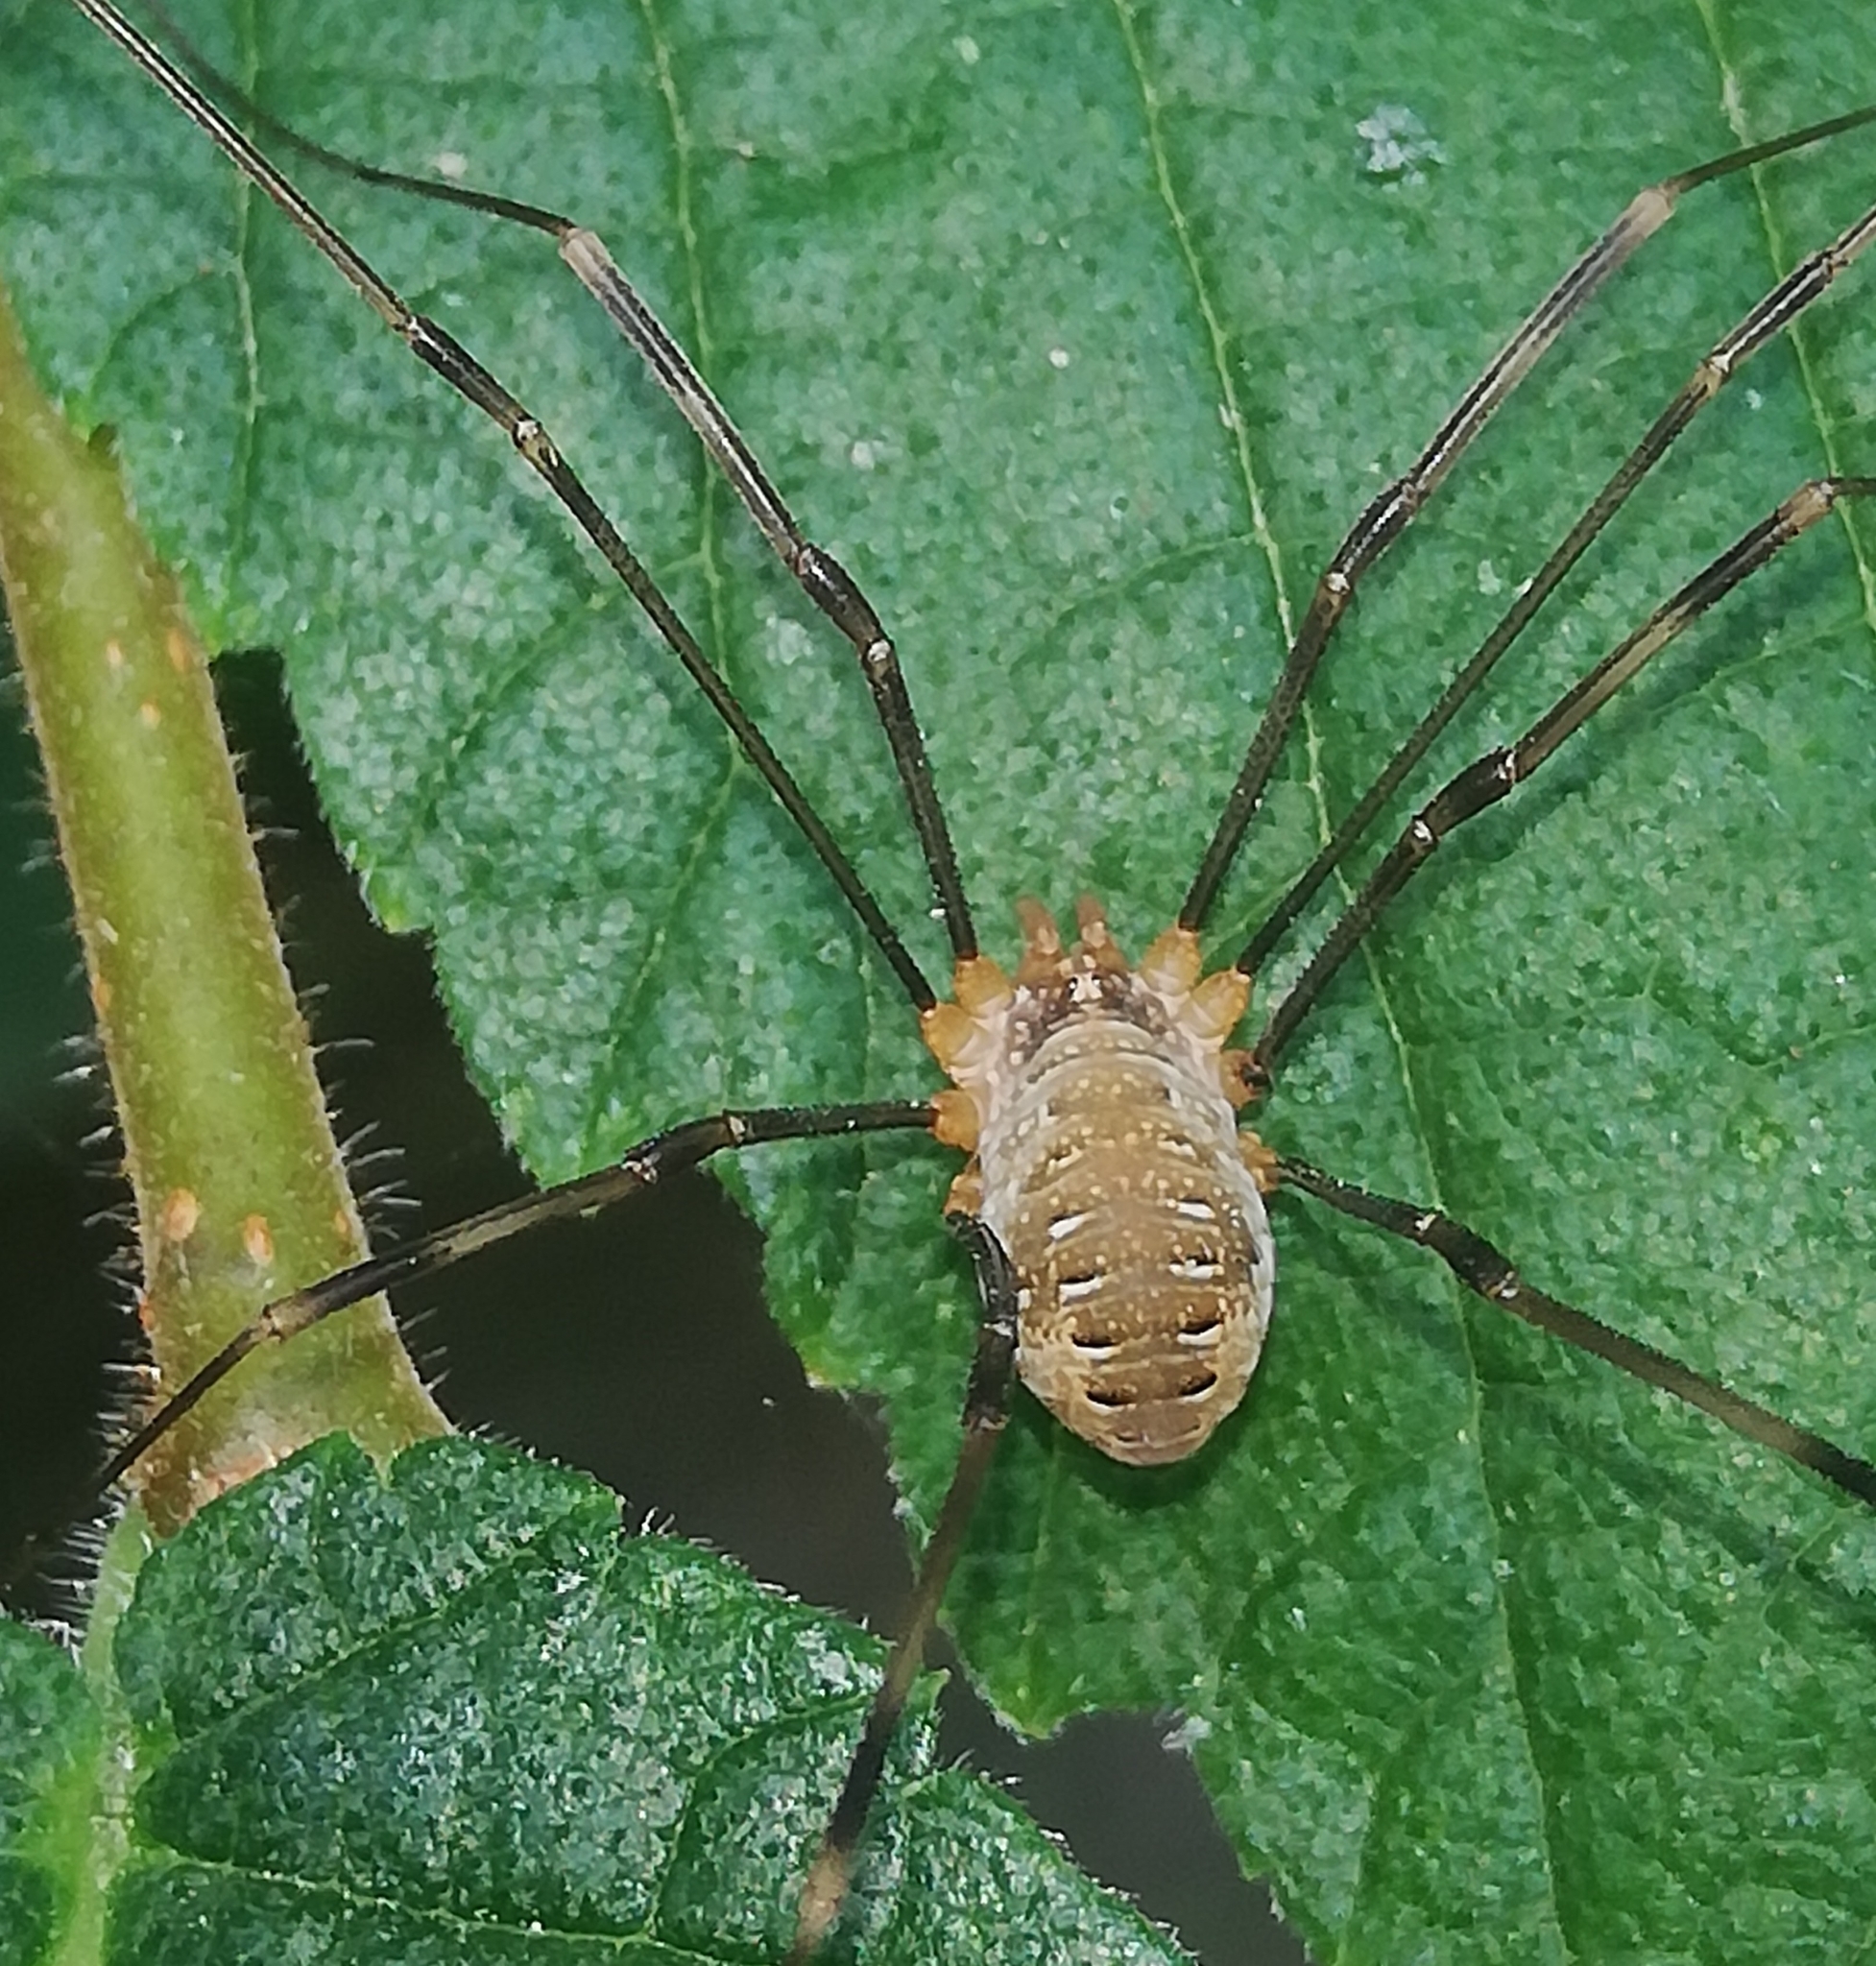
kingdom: Animalia
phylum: Arthropoda
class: Arachnida
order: Opiliones
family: Phalangiidae
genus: Opilio
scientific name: Opilio canestrinii
